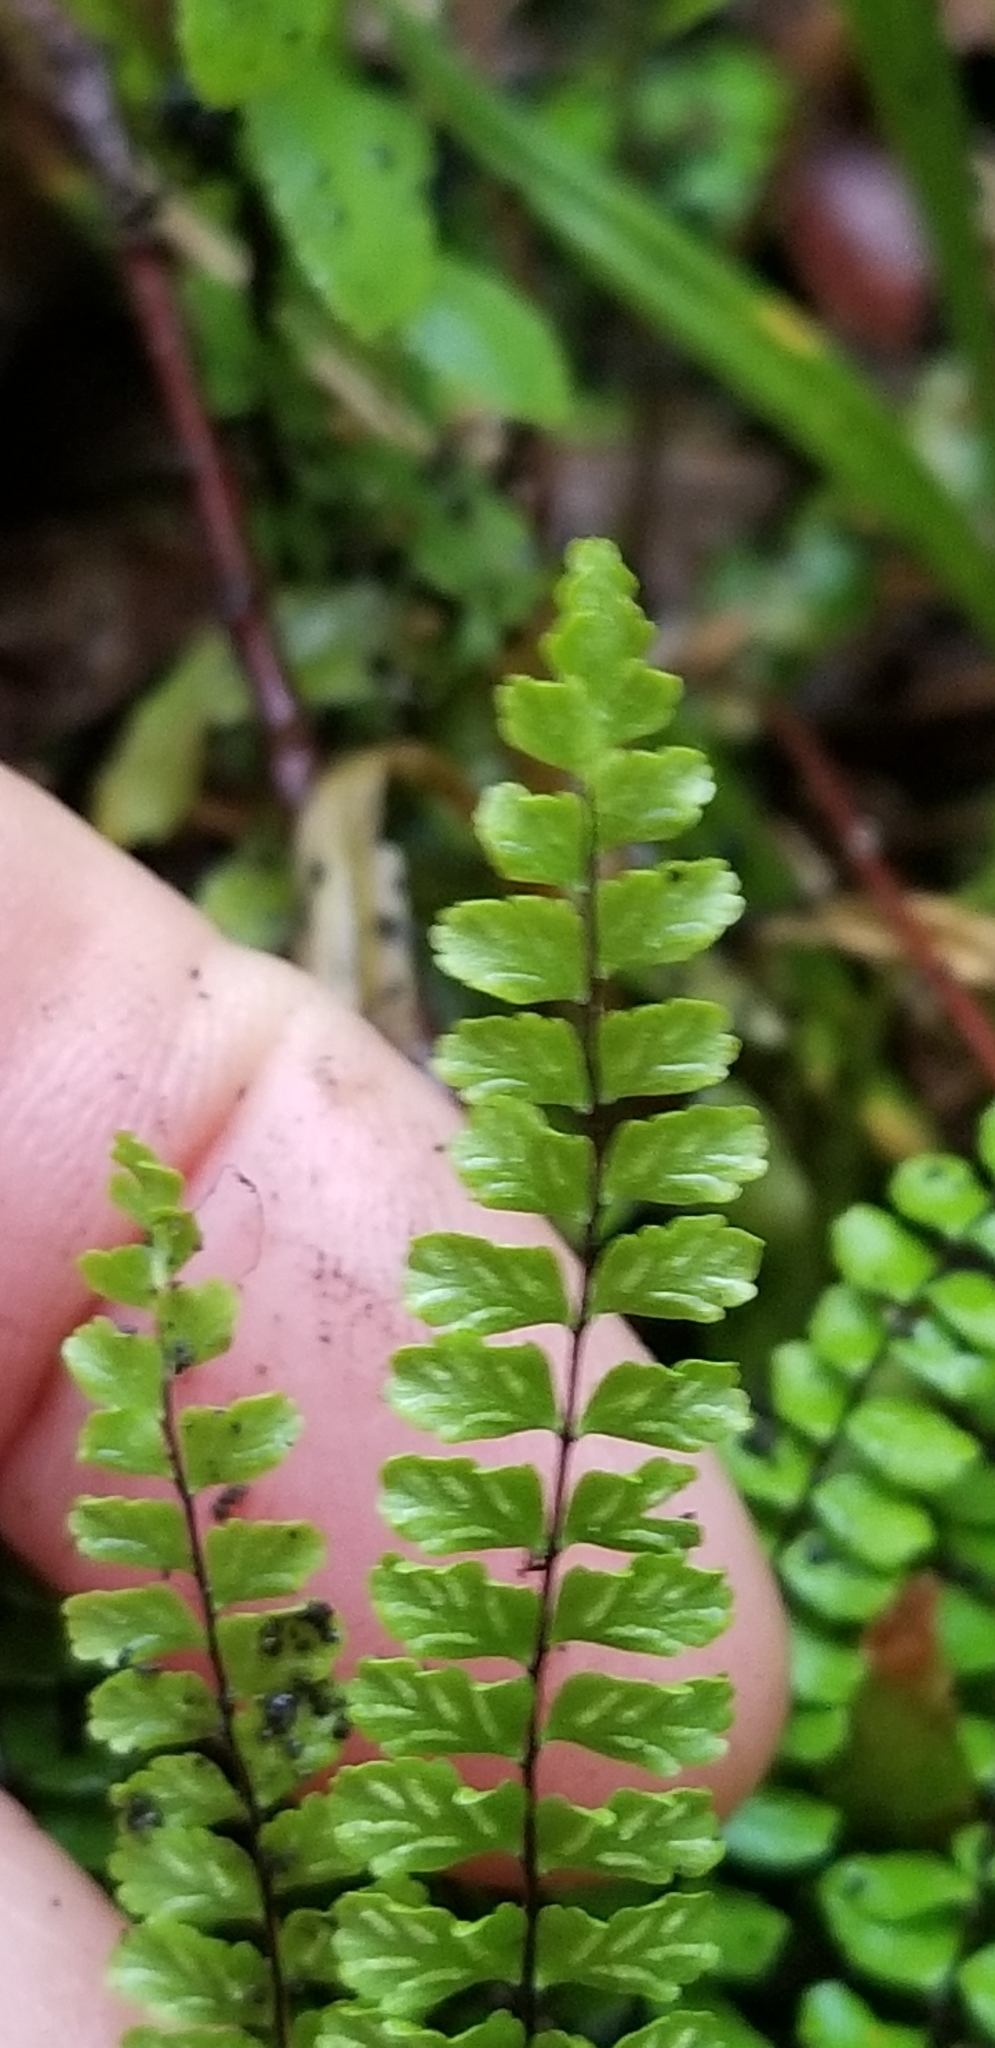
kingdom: Plantae
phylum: Tracheophyta
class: Polypodiopsida
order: Polypodiales
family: Aspleniaceae
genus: Asplenium
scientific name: Asplenium trichomanes
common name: Maidenhair spleenwort
